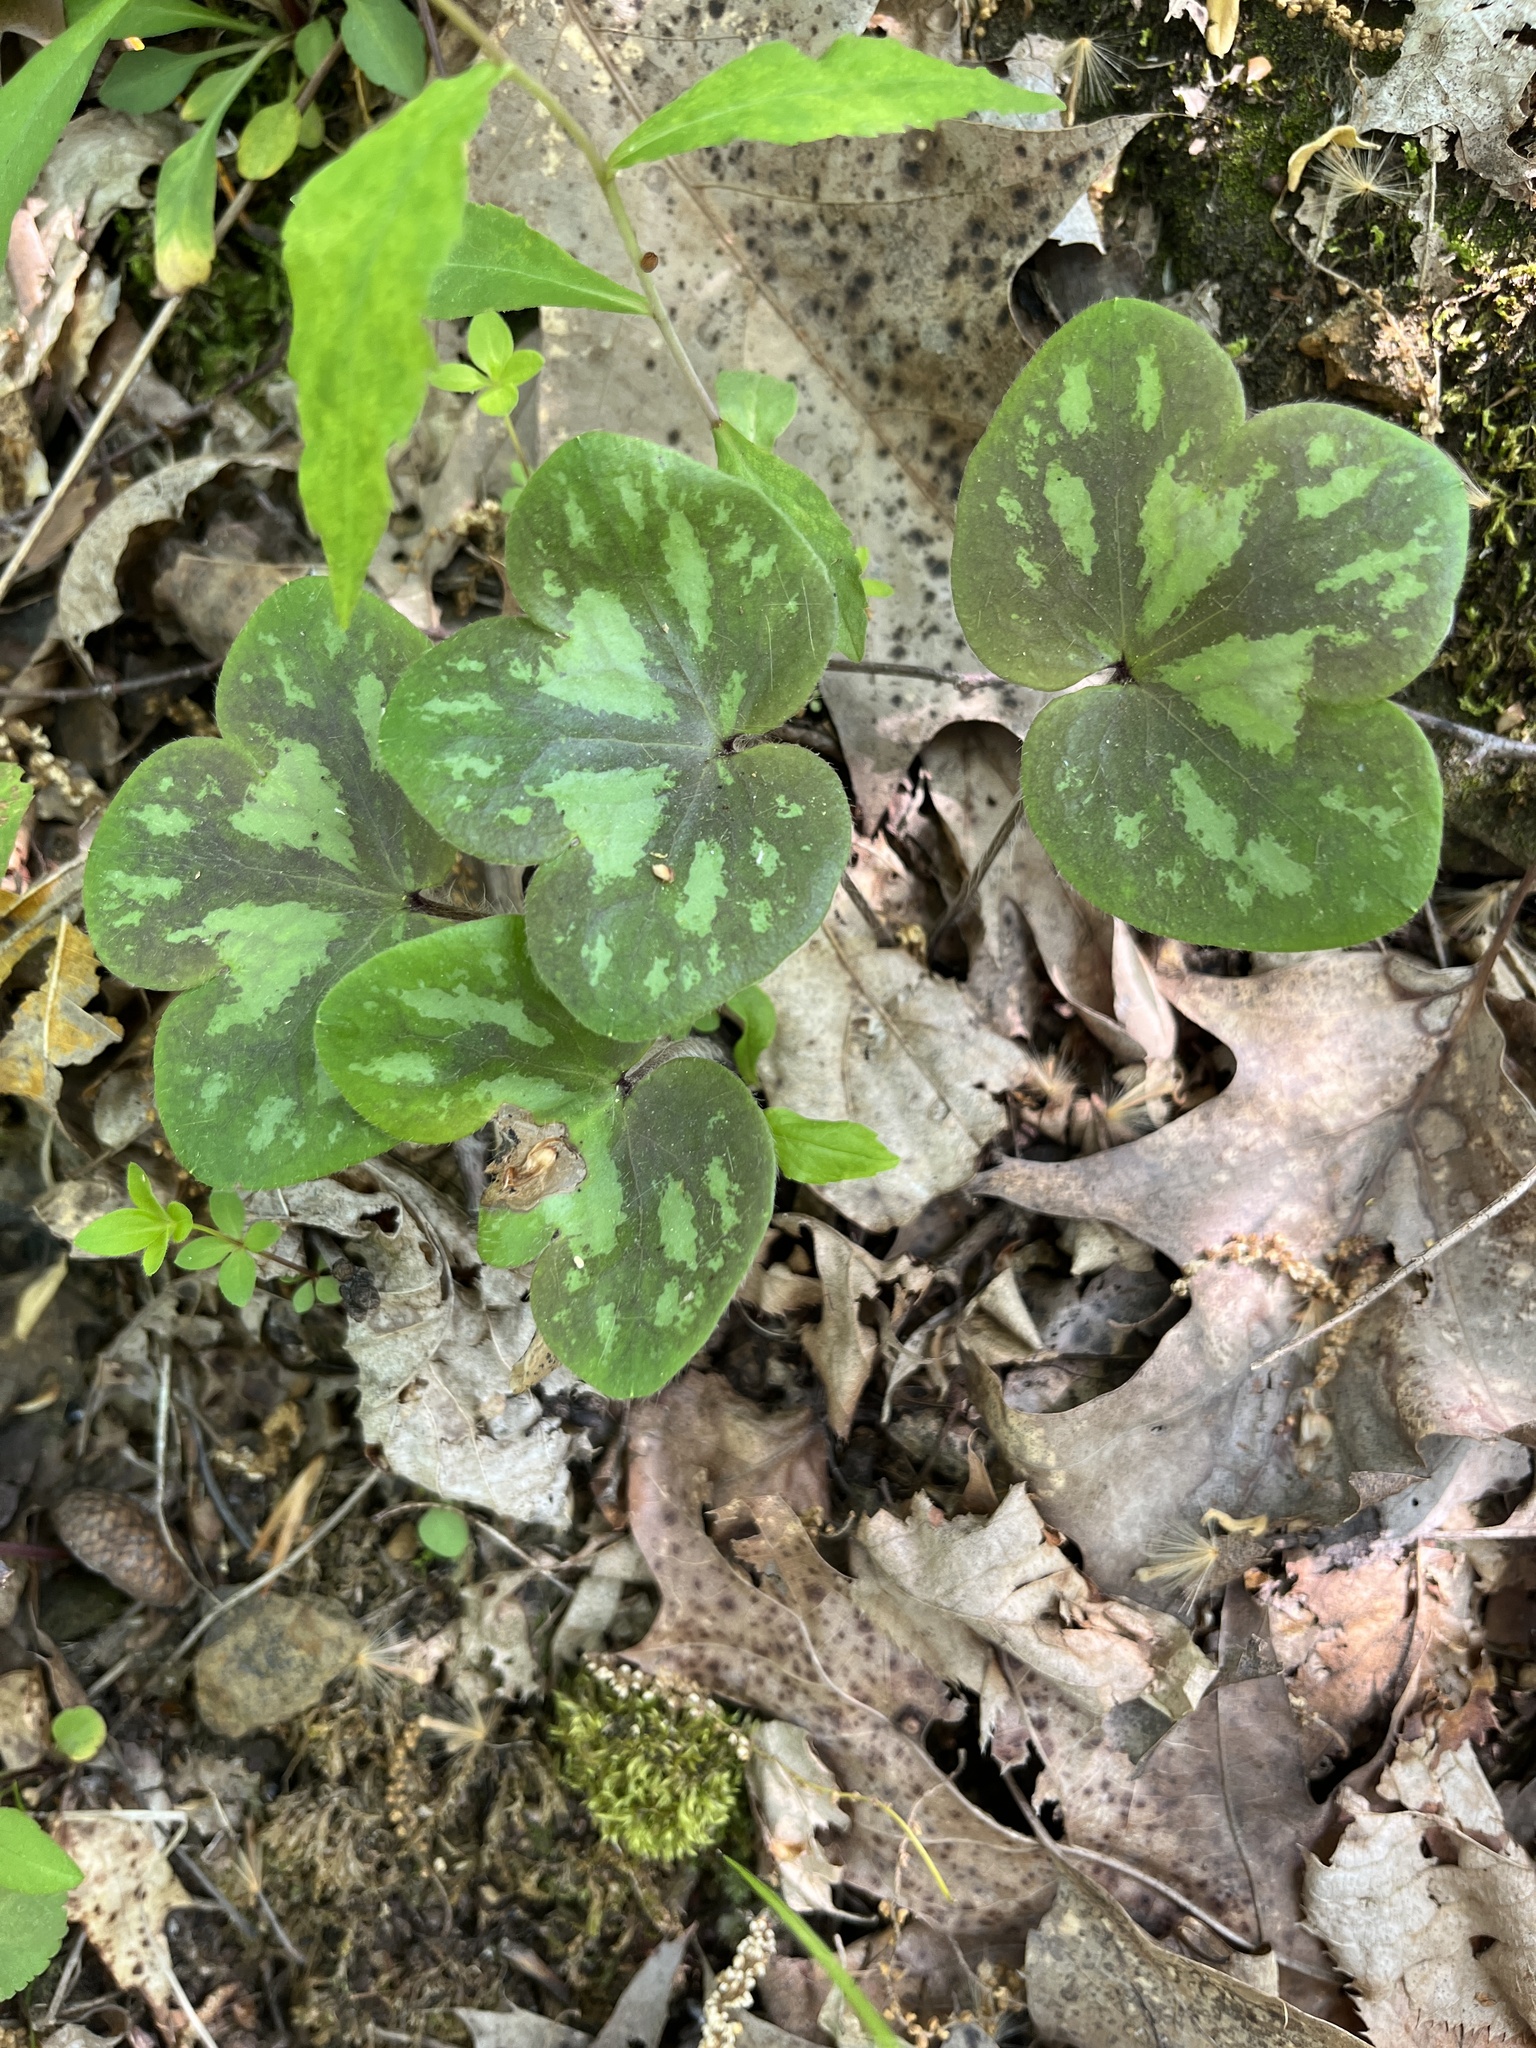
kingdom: Plantae
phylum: Tracheophyta
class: Magnoliopsida
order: Ranunculales
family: Ranunculaceae
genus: Hepatica
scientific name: Hepatica americana
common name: American hepatica
